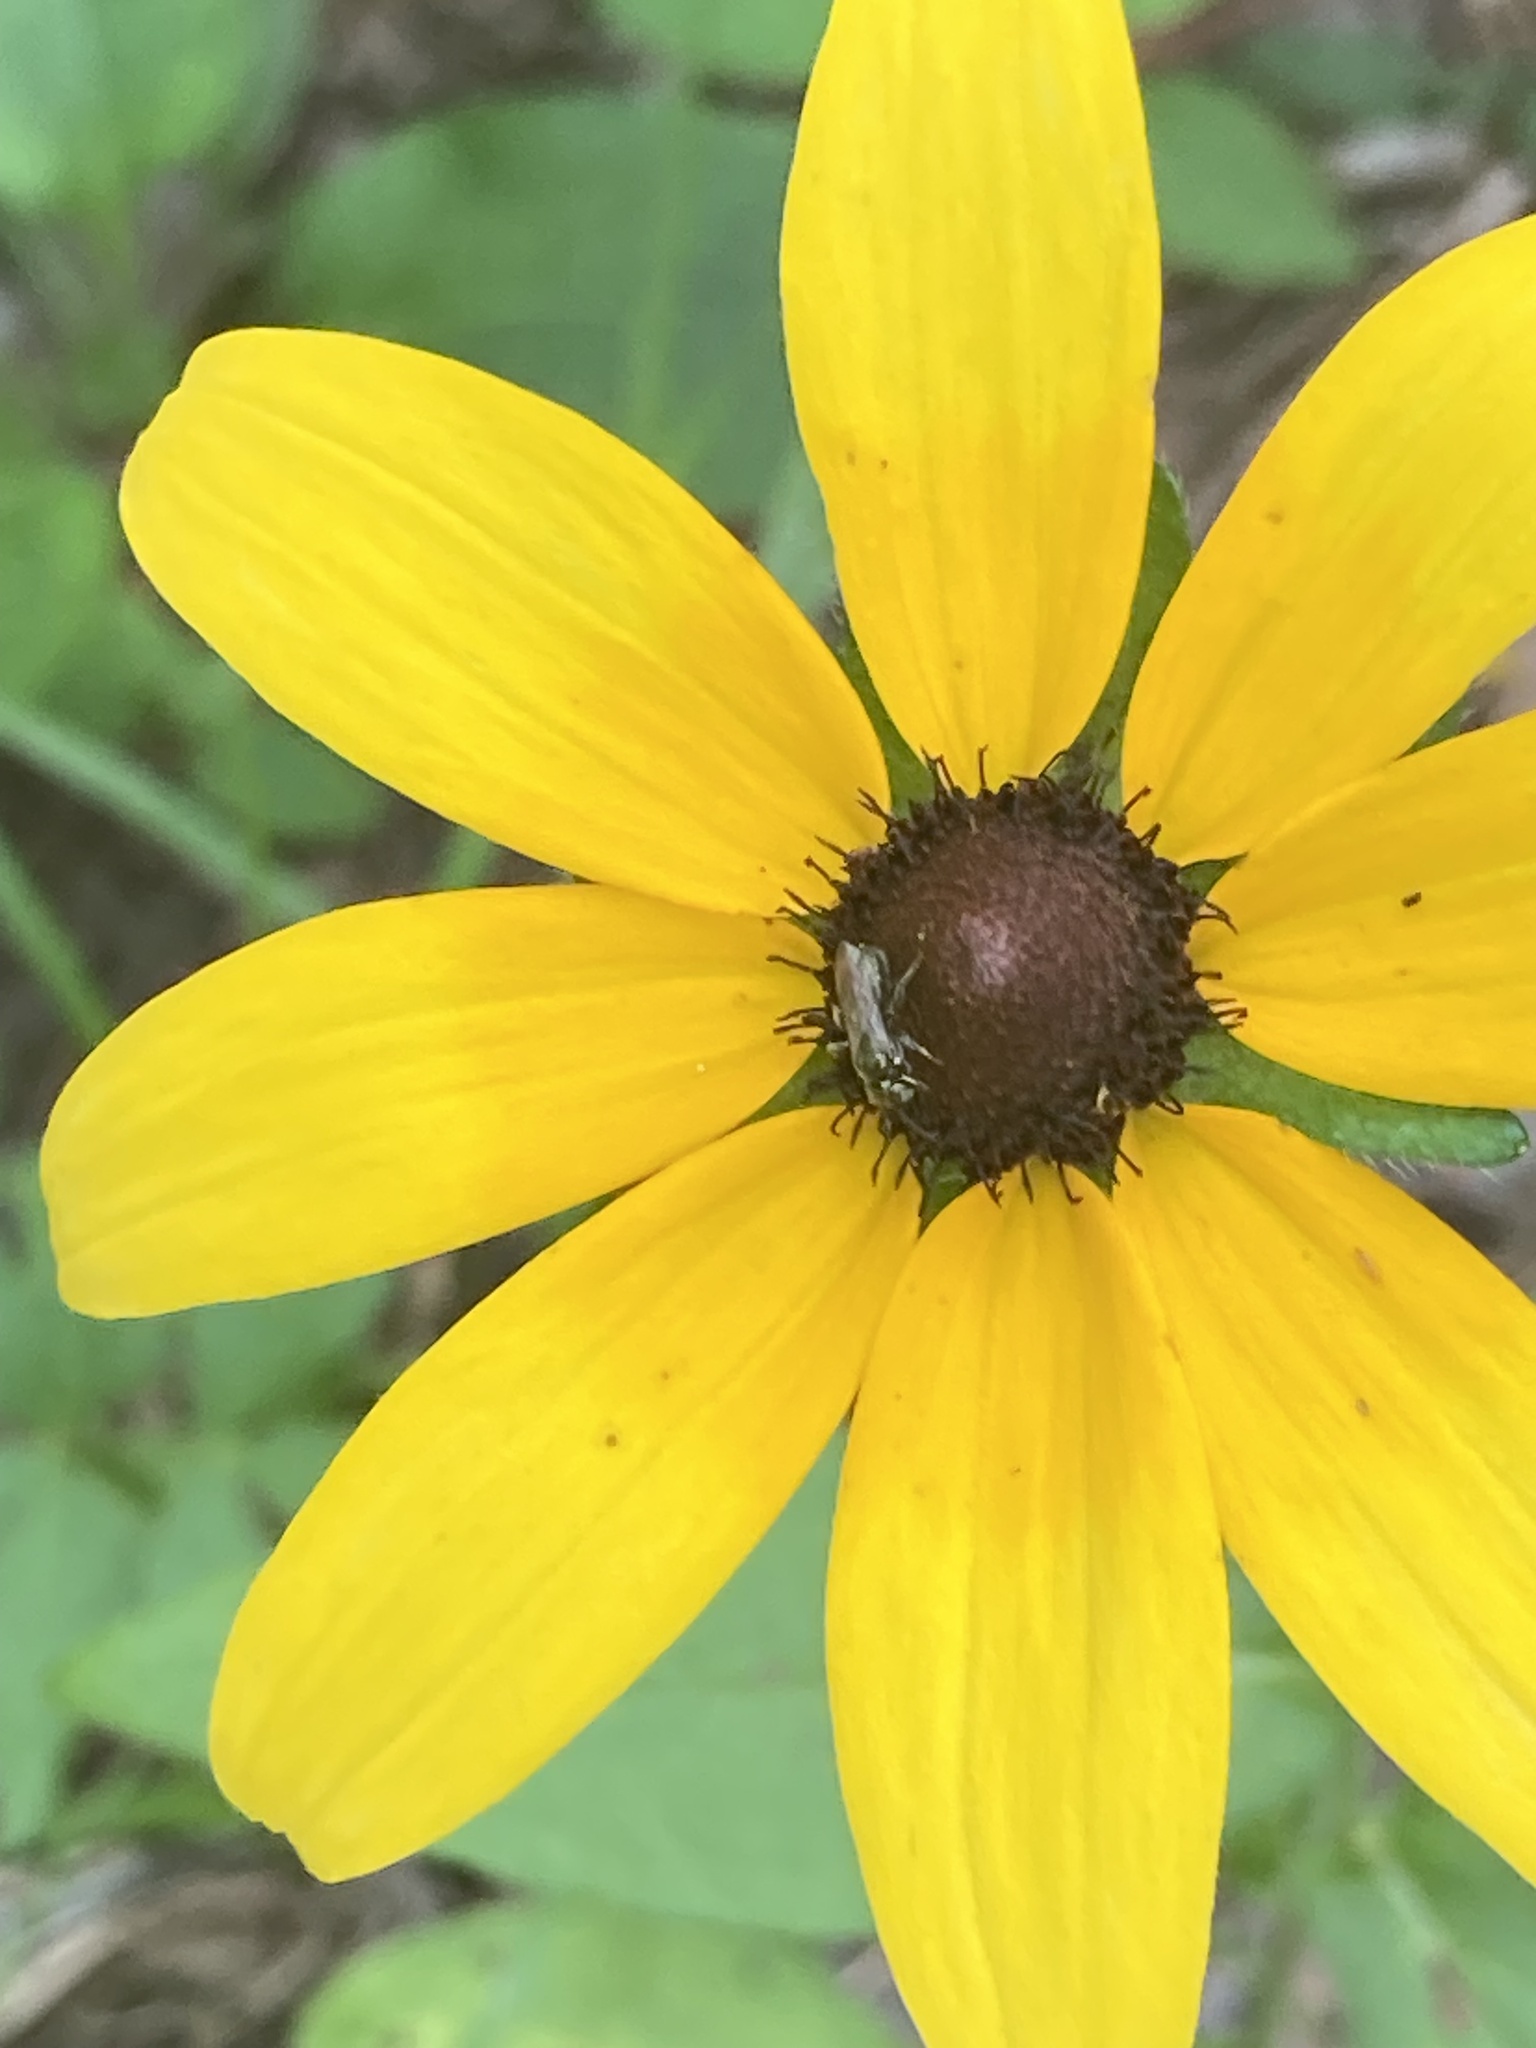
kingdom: Plantae
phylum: Tracheophyta
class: Magnoliopsida
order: Asterales
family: Asteraceae
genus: Rudbeckia
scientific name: Rudbeckia hirta
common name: Black-eyed-susan
